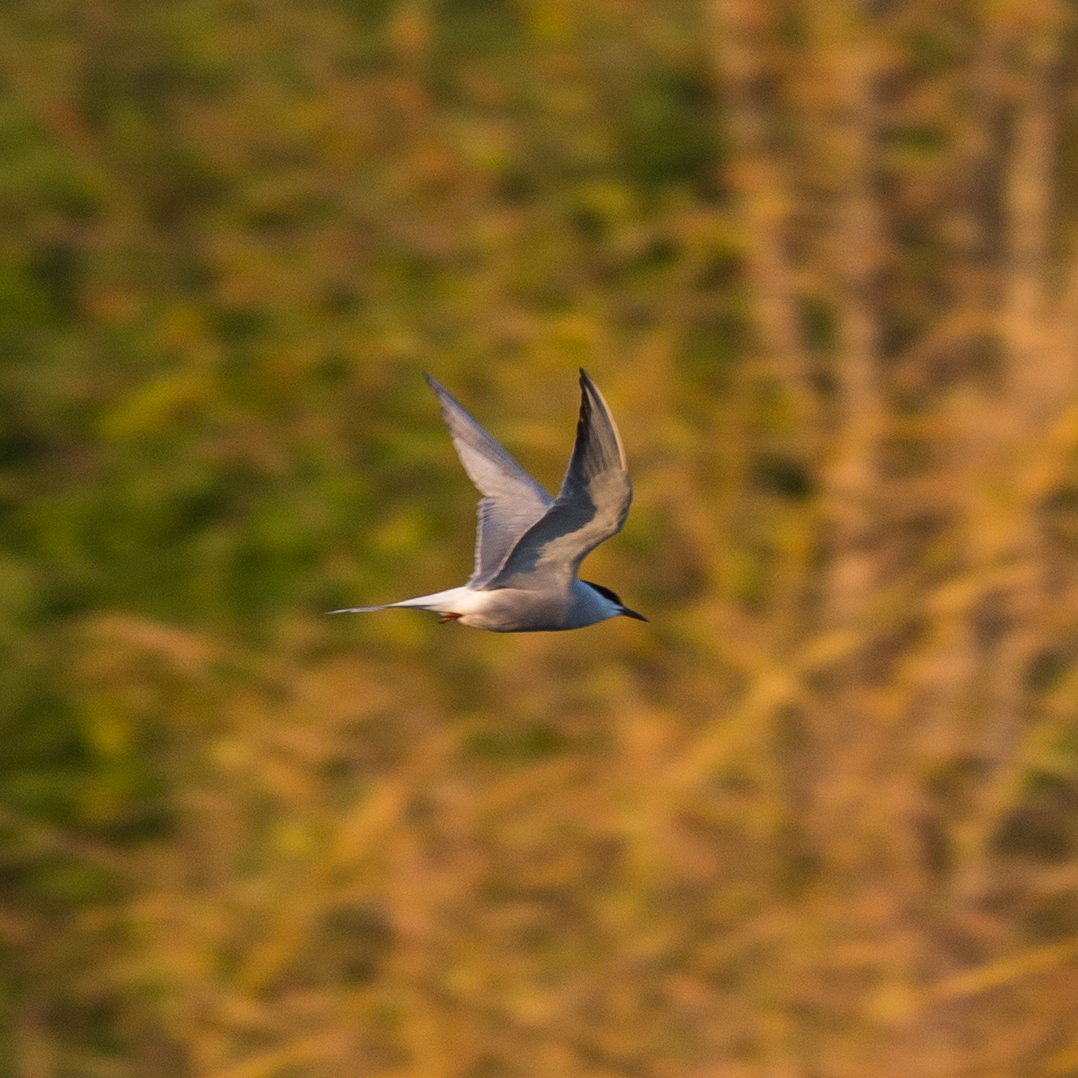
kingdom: Animalia
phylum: Chordata
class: Aves
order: Charadriiformes
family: Laridae
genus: Sterna
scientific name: Sterna hirundo
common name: Common tern
